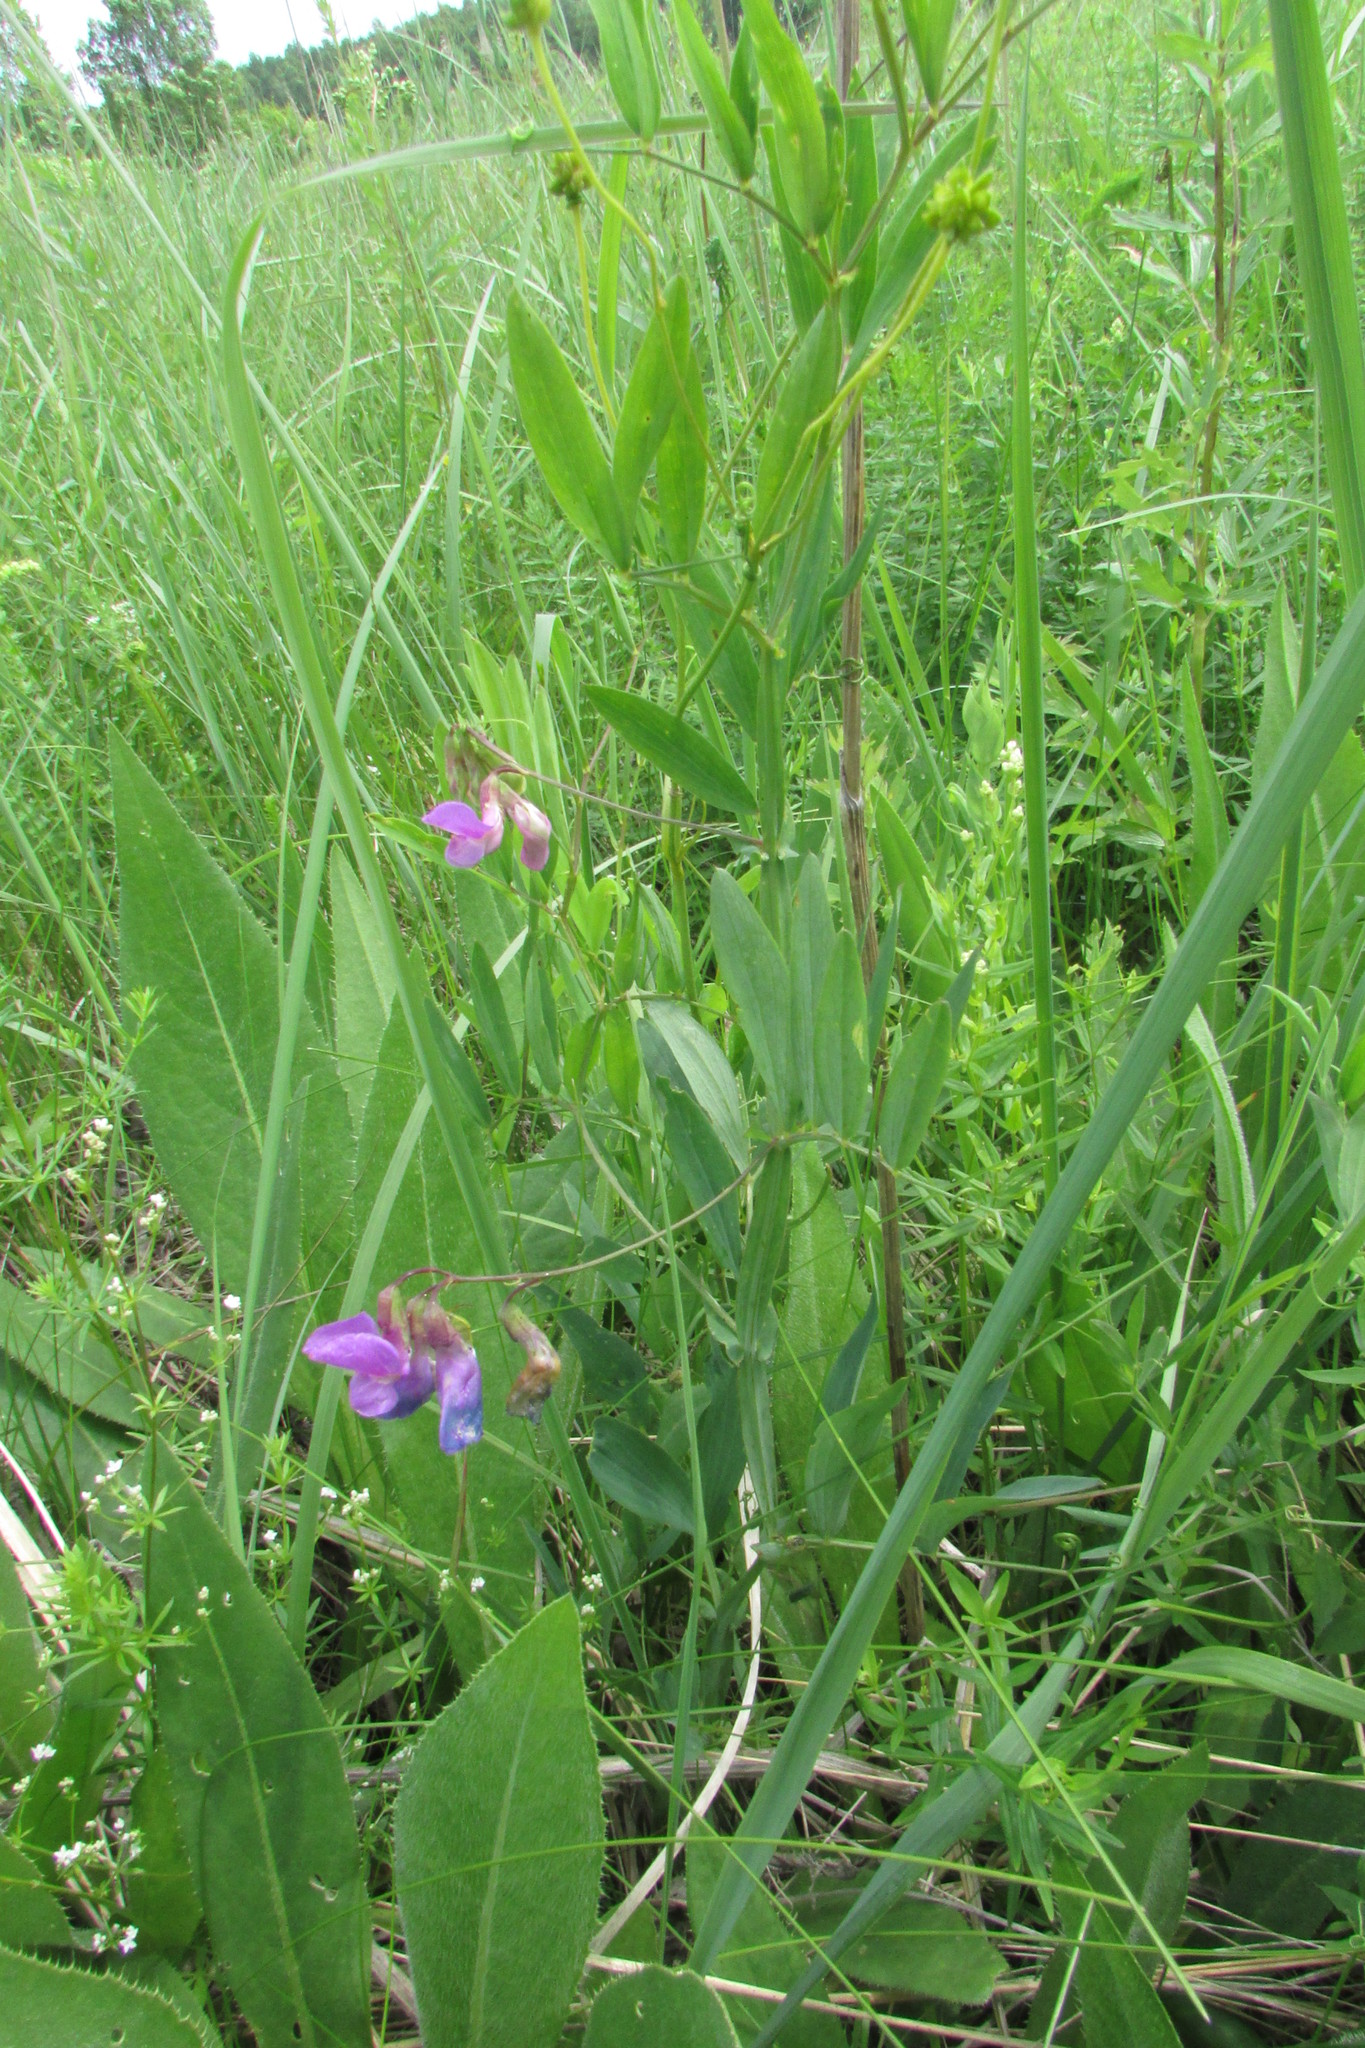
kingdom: Plantae
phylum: Tracheophyta
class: Magnoliopsida
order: Fabales
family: Fabaceae
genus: Lathyrus
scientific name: Lathyrus palustris
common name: Marsh pea
